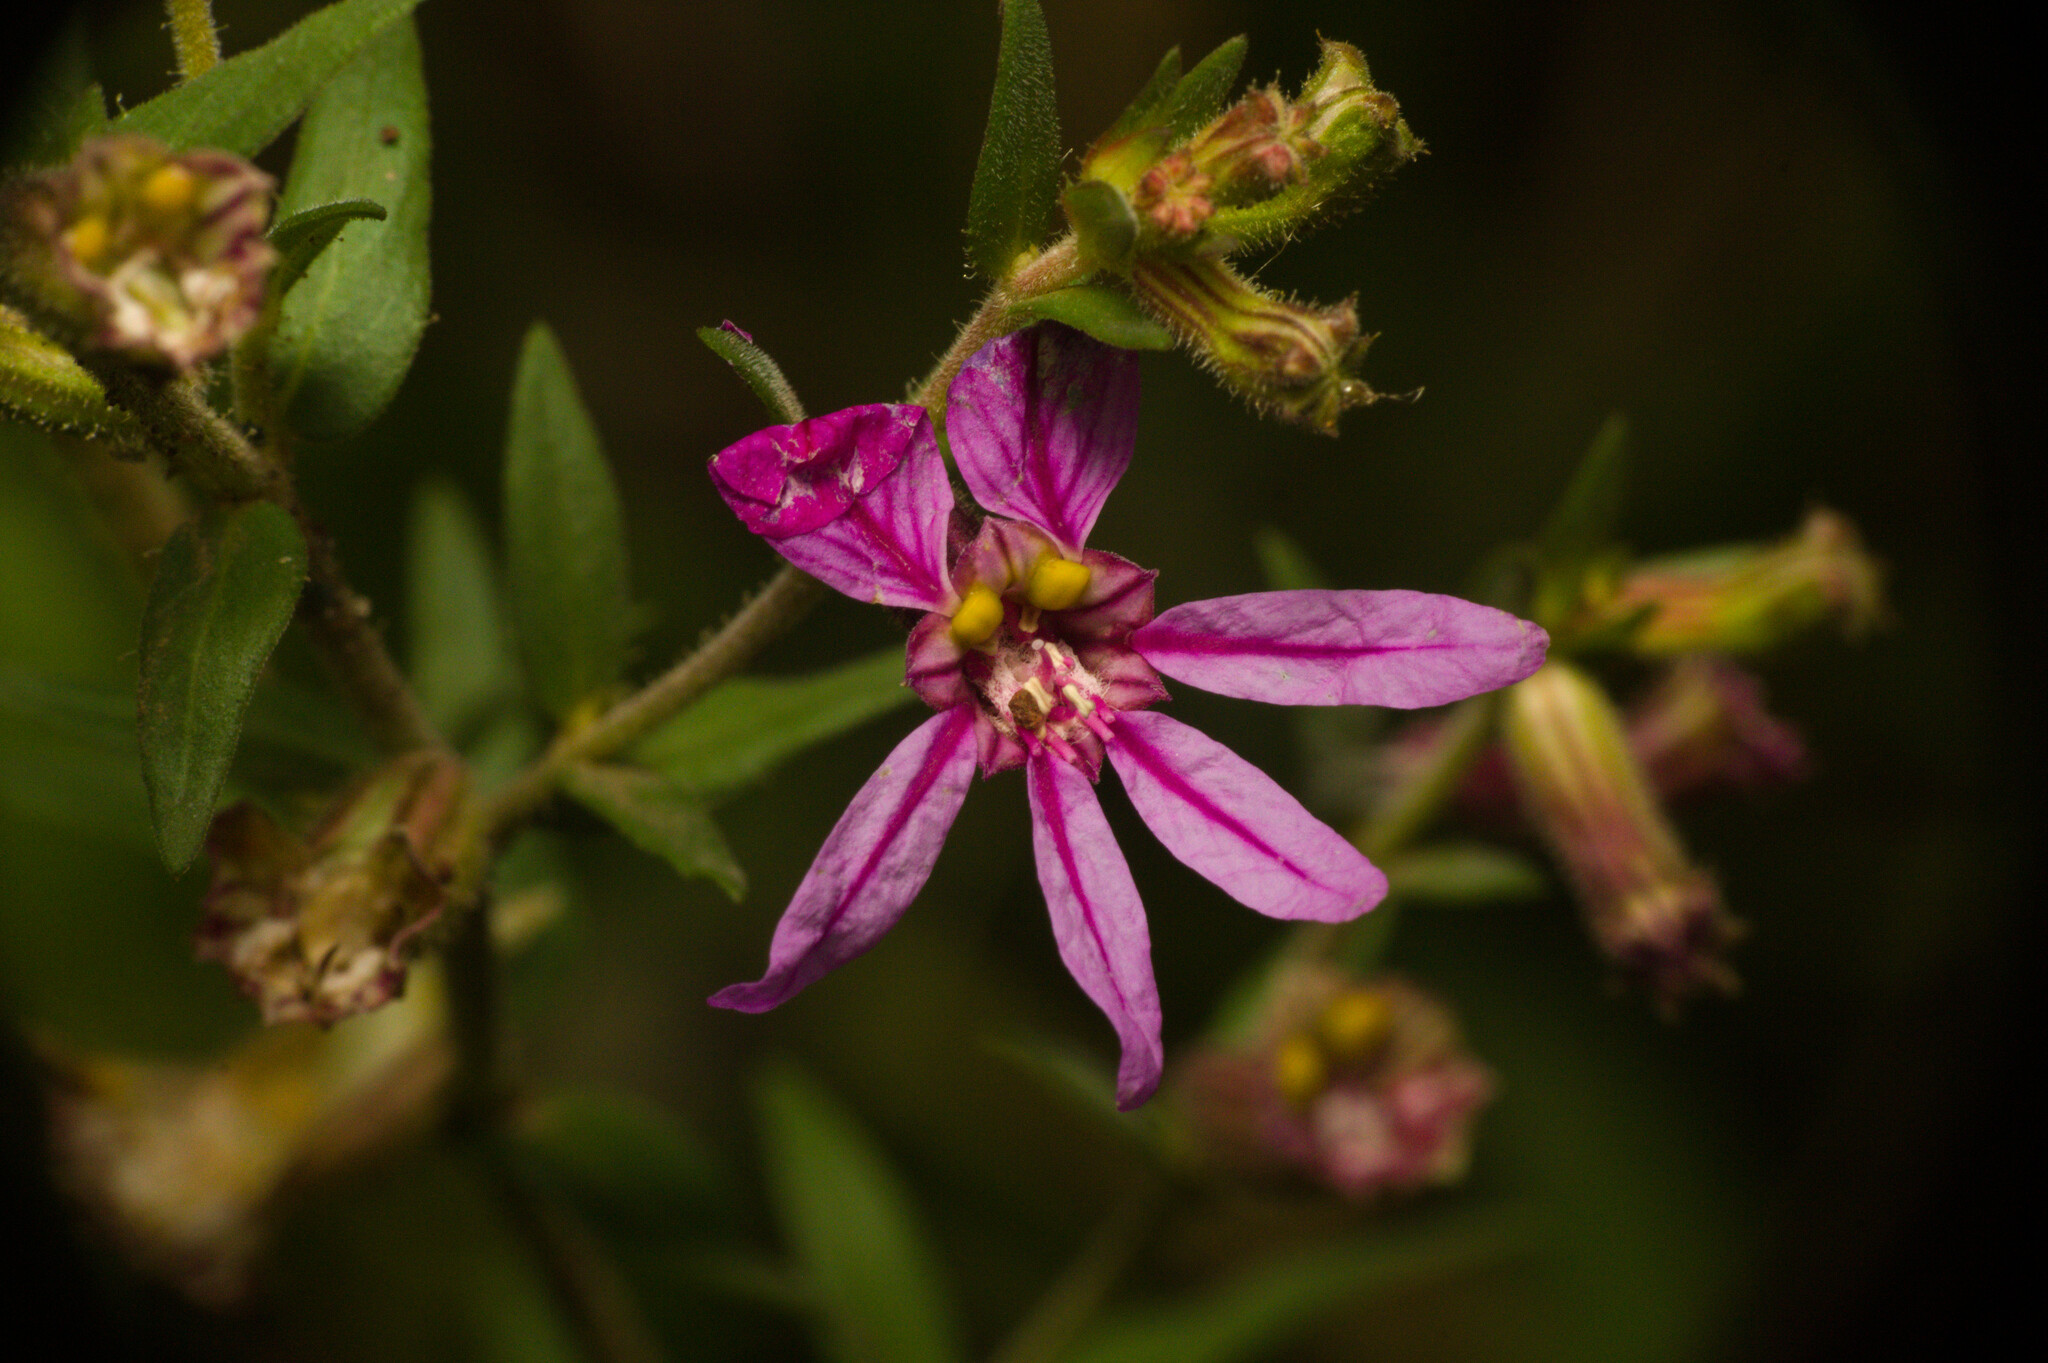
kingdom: Plantae
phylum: Tracheophyta
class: Magnoliopsida
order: Myrtales
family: Lythraceae
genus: Cuphea
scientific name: Cuphea glutinosa
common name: Sticky waxweed
